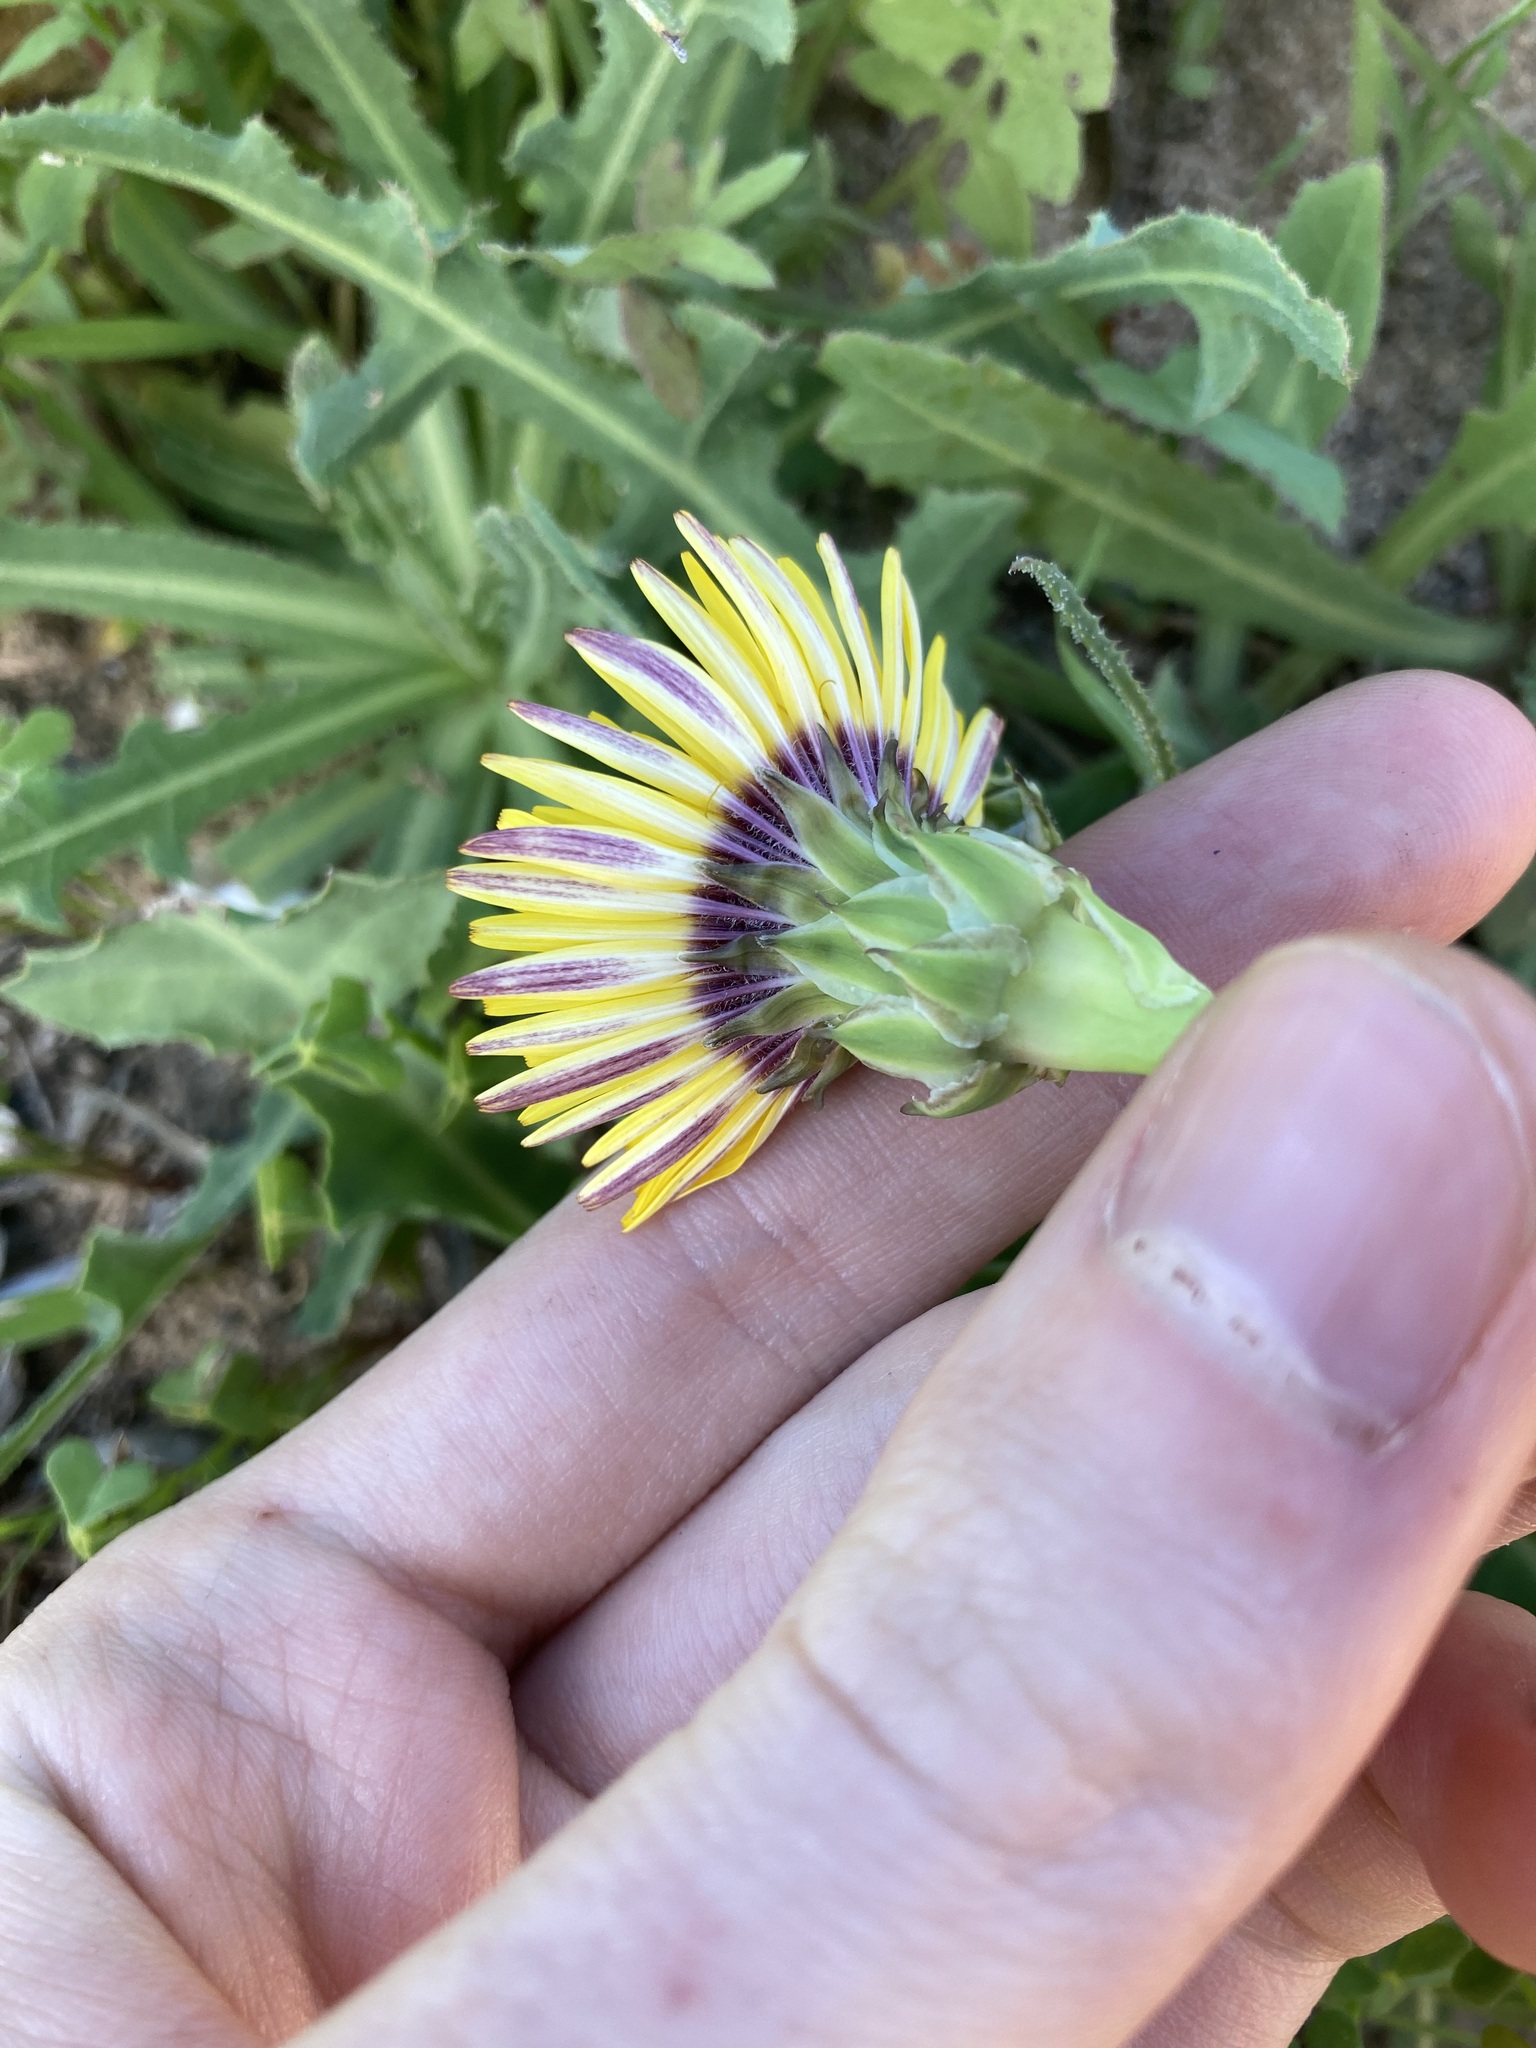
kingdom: Plantae
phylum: Tracheophyta
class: Magnoliopsida
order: Asterales
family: Asteraceae
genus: Reichardia
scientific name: Reichardia tingitana
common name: Reichardia
